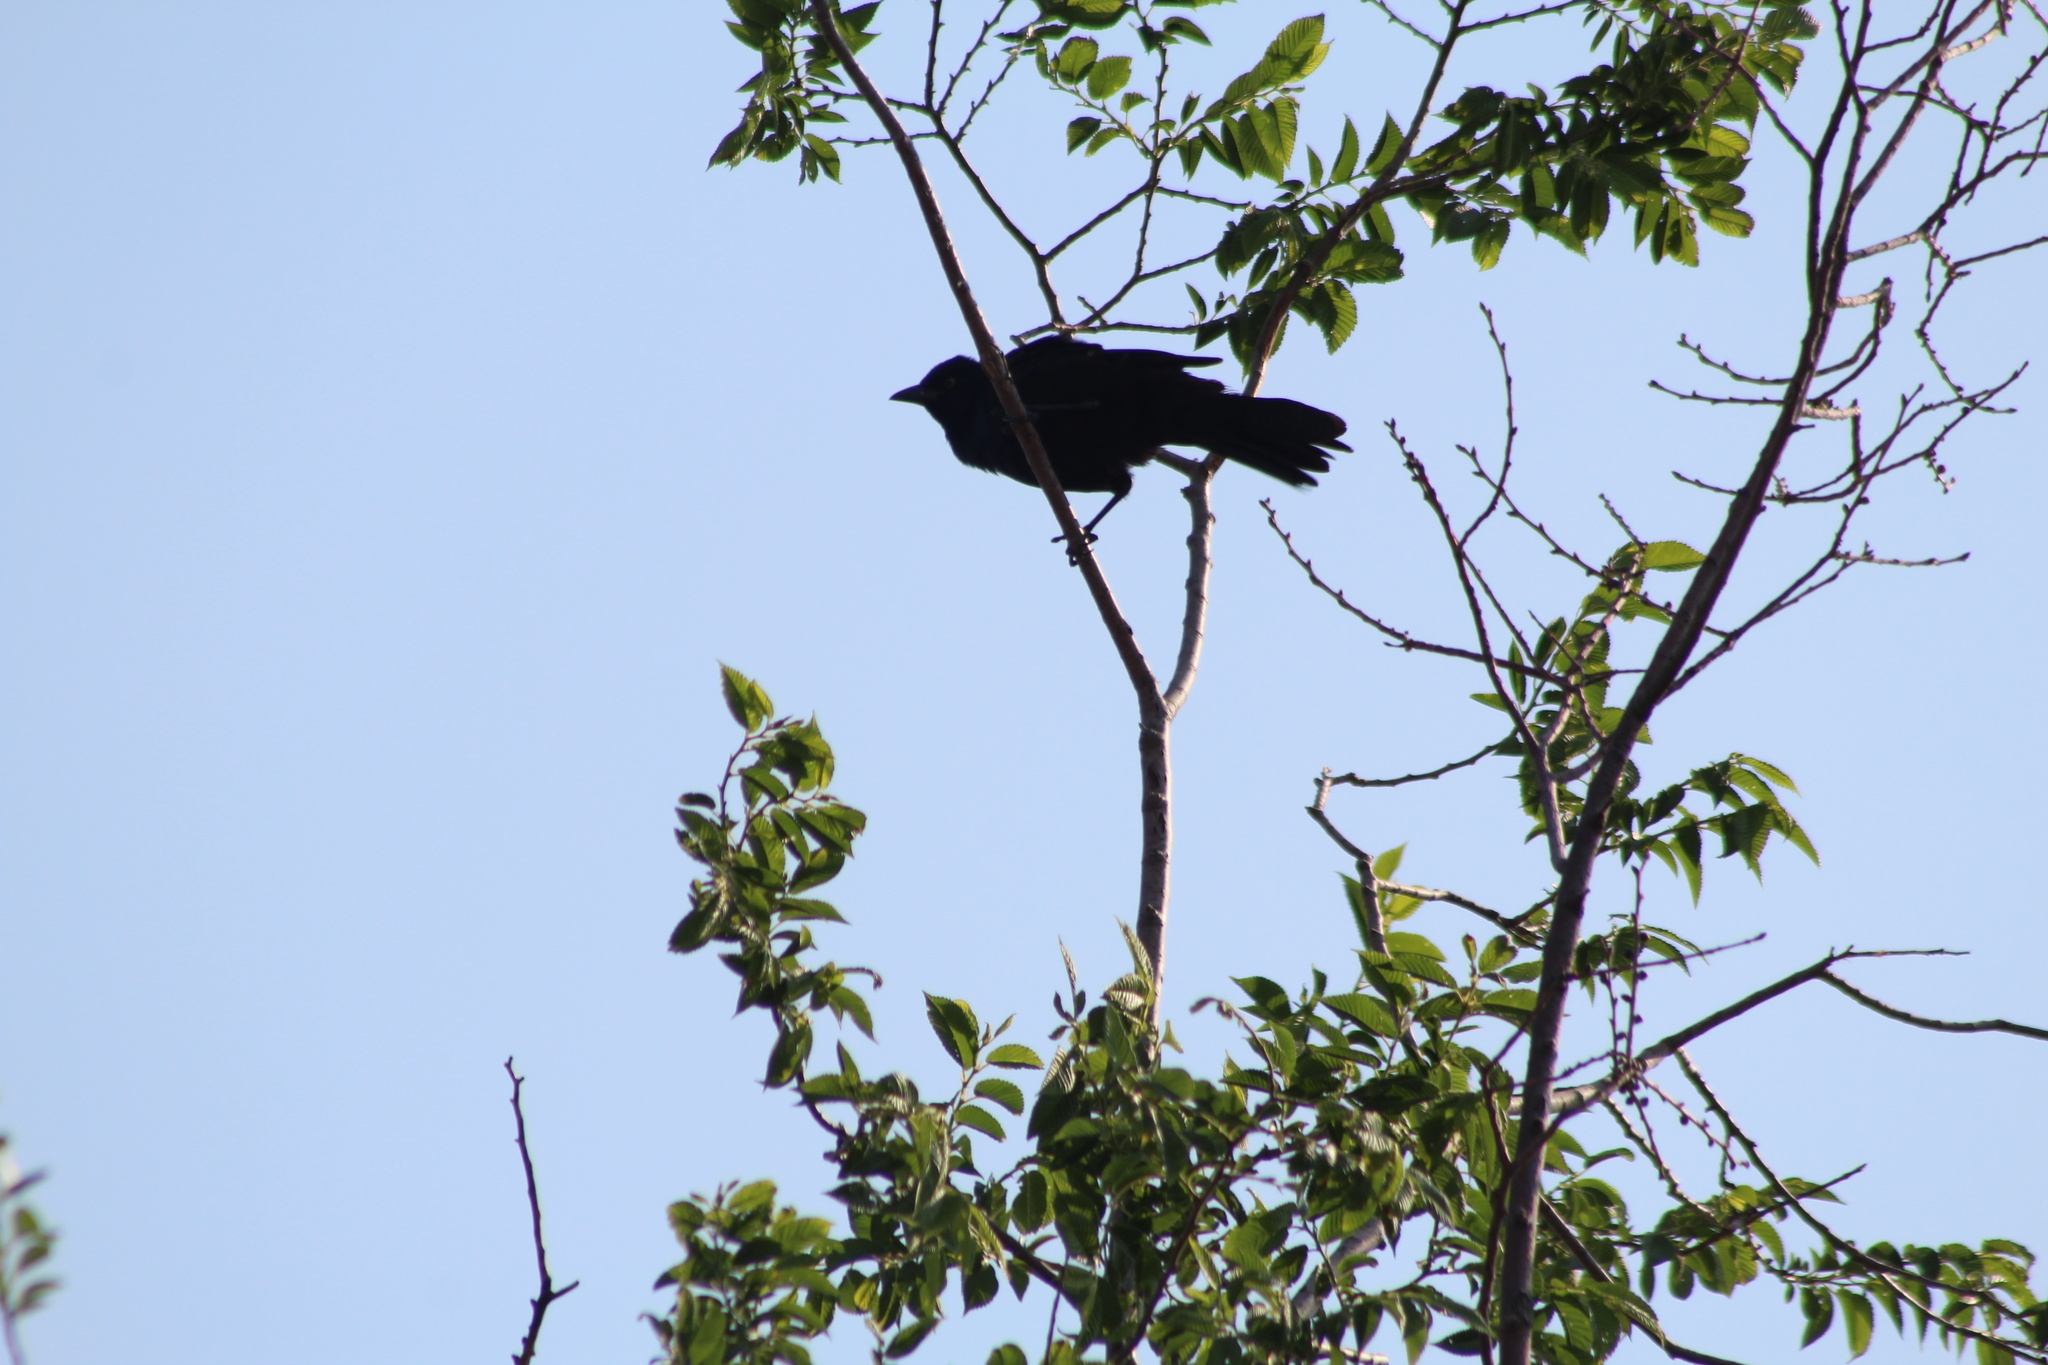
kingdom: Animalia
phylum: Chordata
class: Aves
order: Passeriformes
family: Icteridae
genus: Quiscalus
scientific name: Quiscalus quiscula
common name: Common grackle
